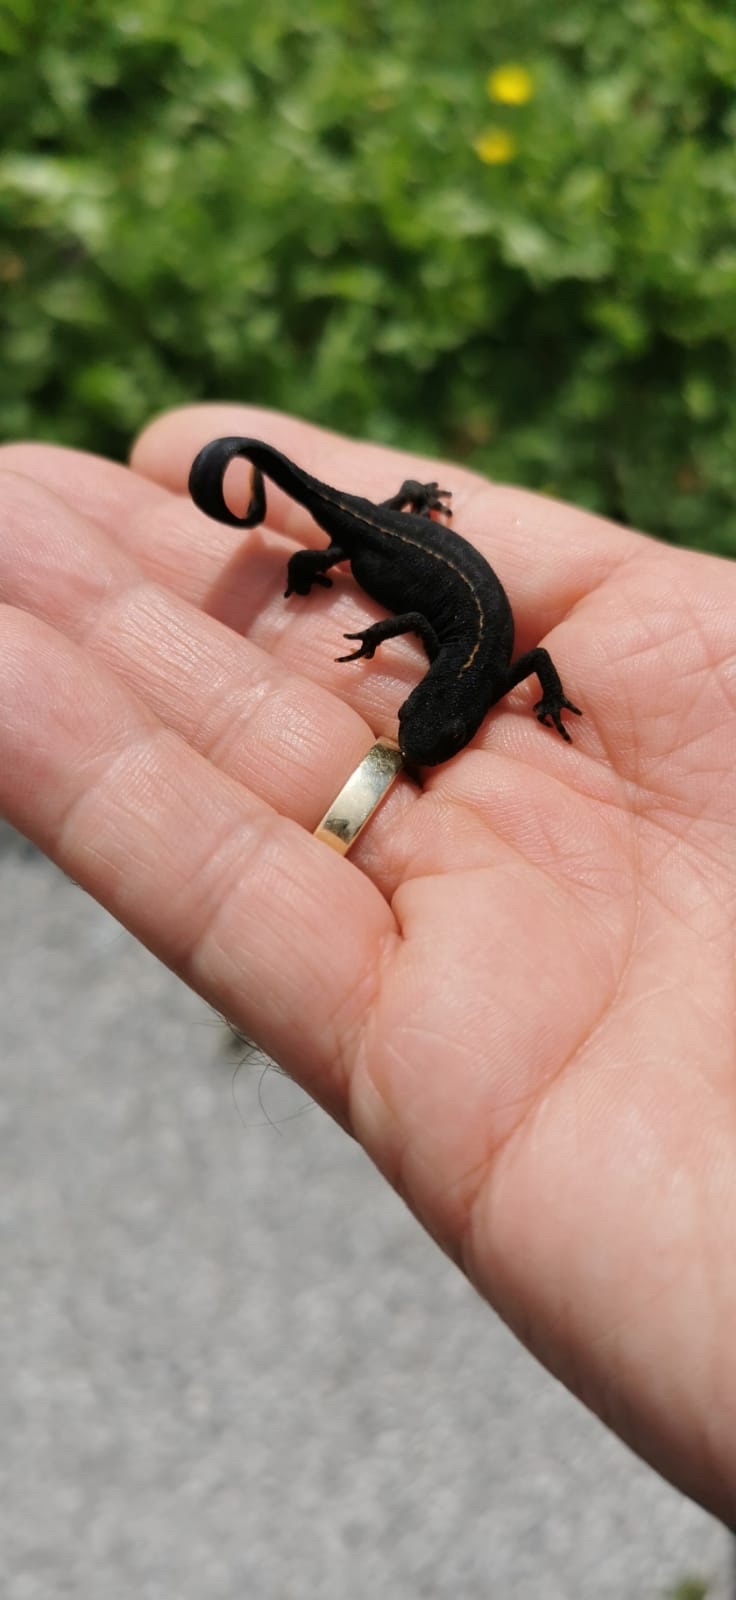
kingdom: Animalia
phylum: Chordata
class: Amphibia
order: Caudata
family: Salamandridae
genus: Ichthyosaura
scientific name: Ichthyosaura alpestris
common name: Alpine newt
